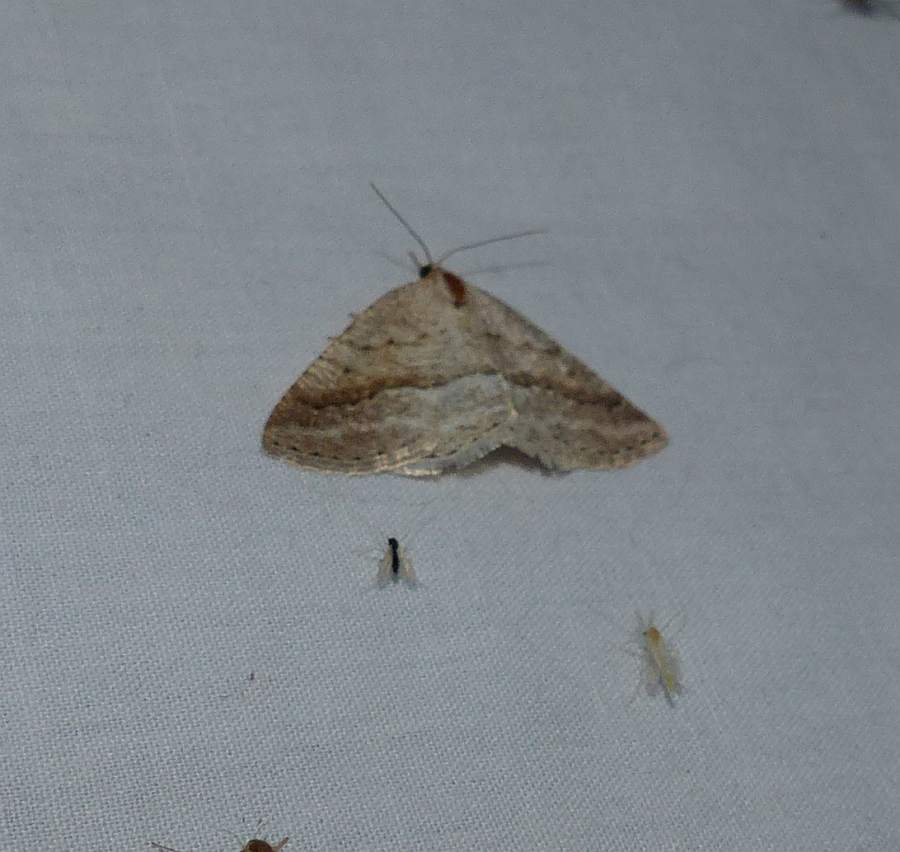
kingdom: Animalia
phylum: Arthropoda
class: Insecta
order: Lepidoptera
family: Geometridae
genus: Tacparia
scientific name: Tacparia detersata
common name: Pale alder moth
